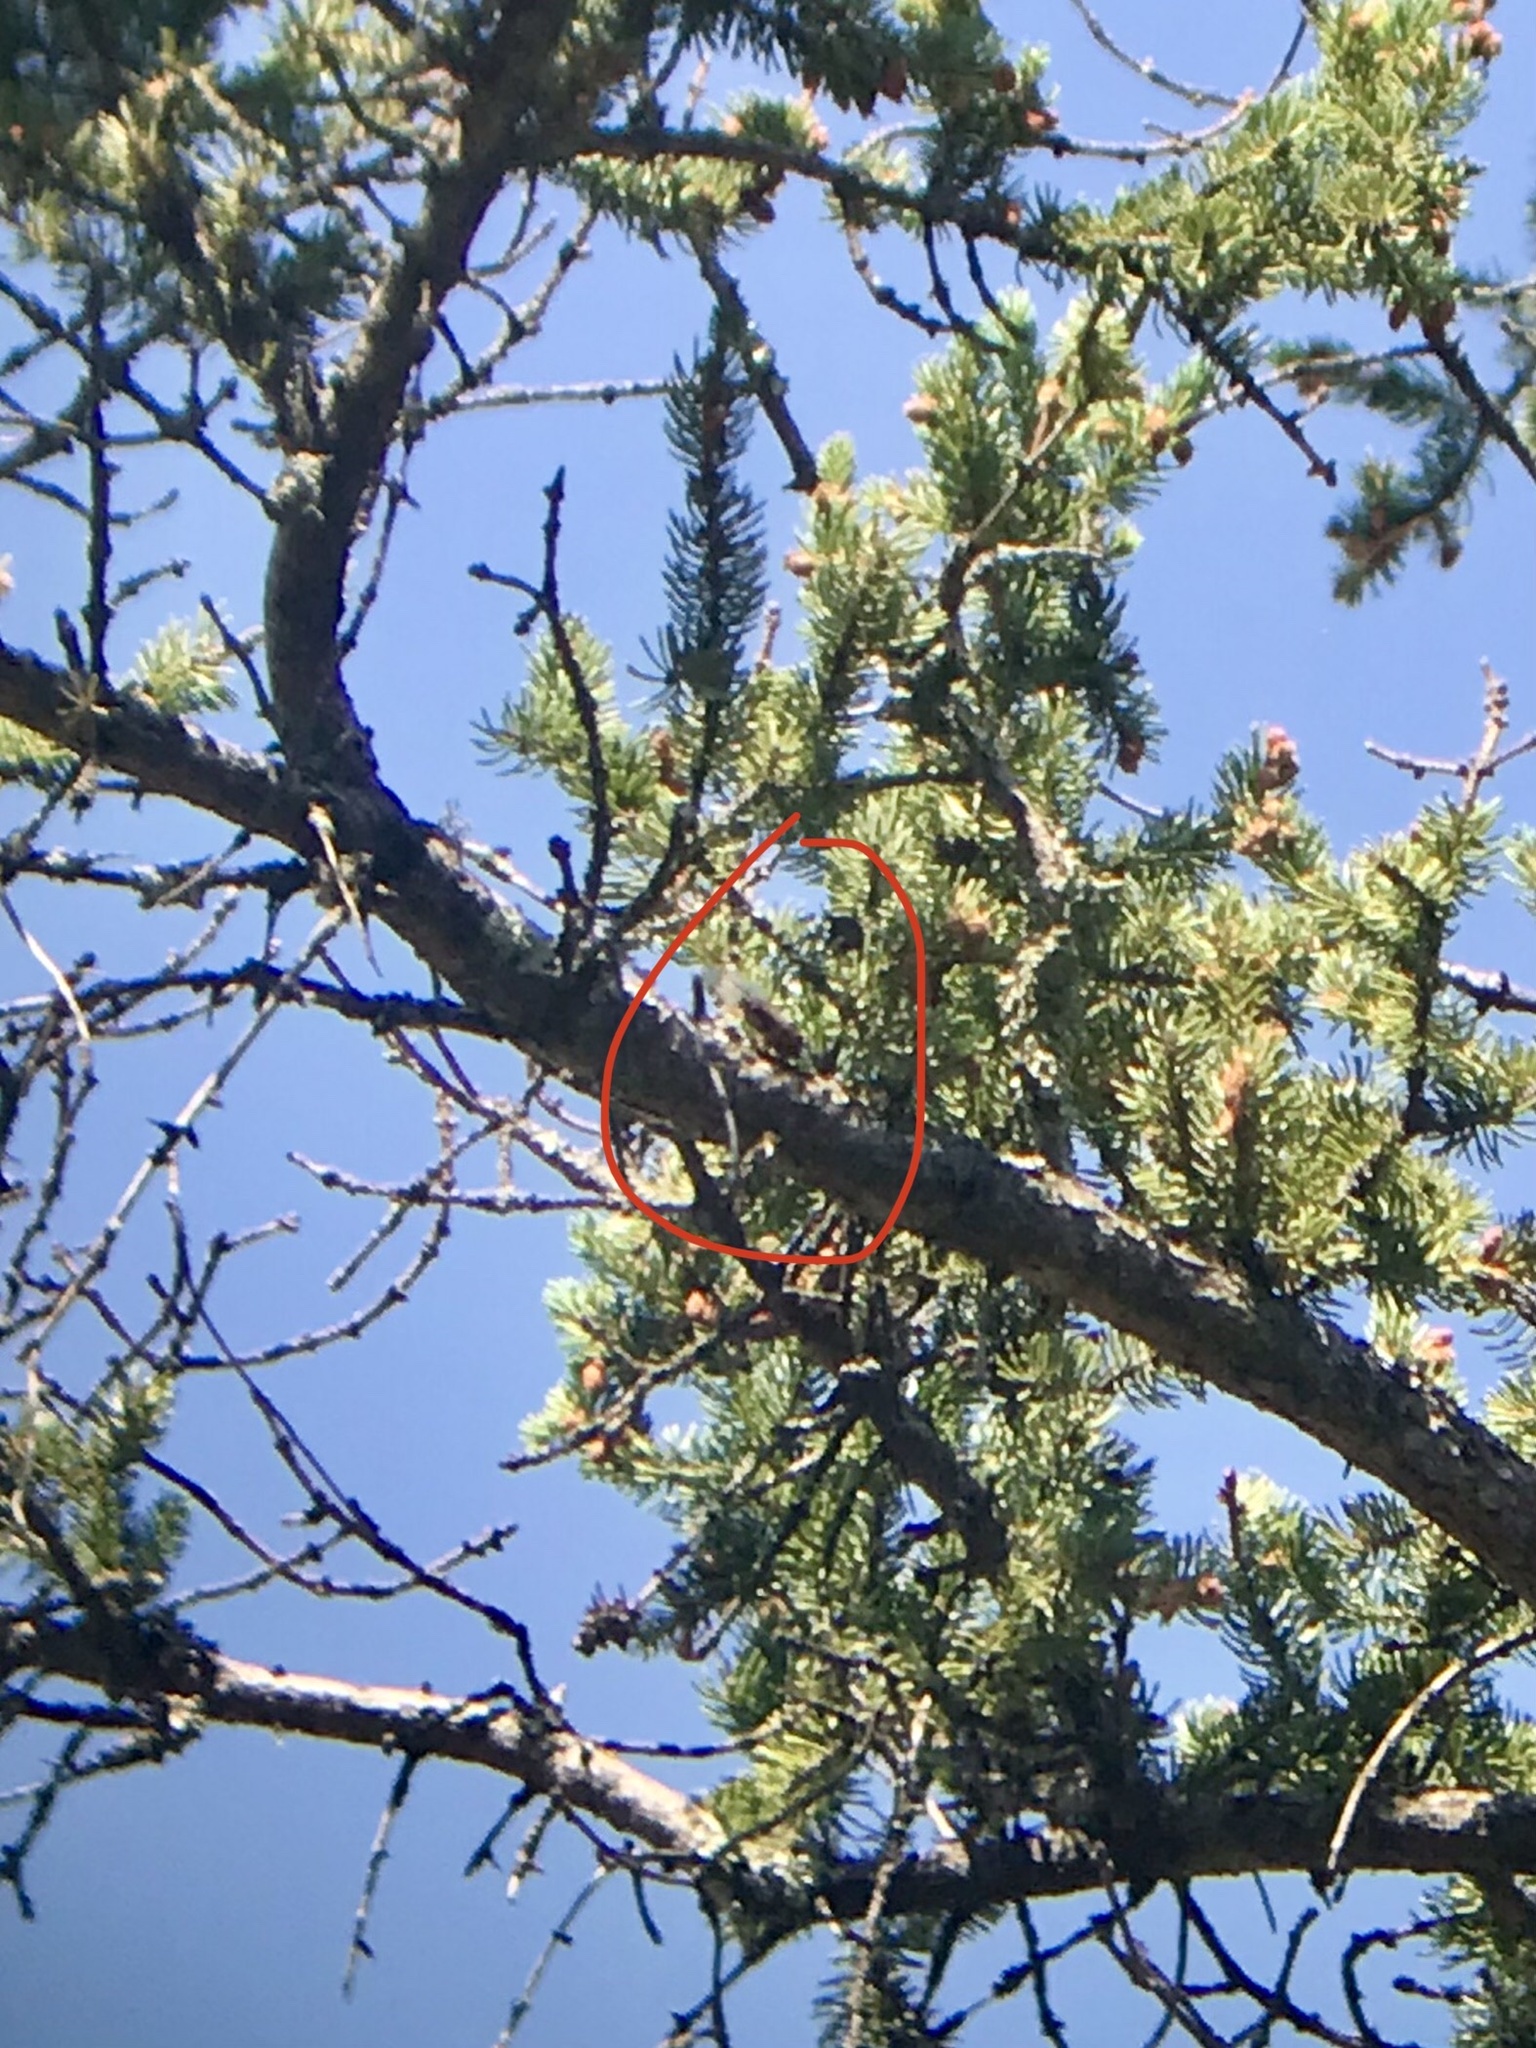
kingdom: Animalia
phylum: Arthropoda
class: Insecta
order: Hemiptera
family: Cicadidae
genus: Okanagana
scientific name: Okanagana canadensis
